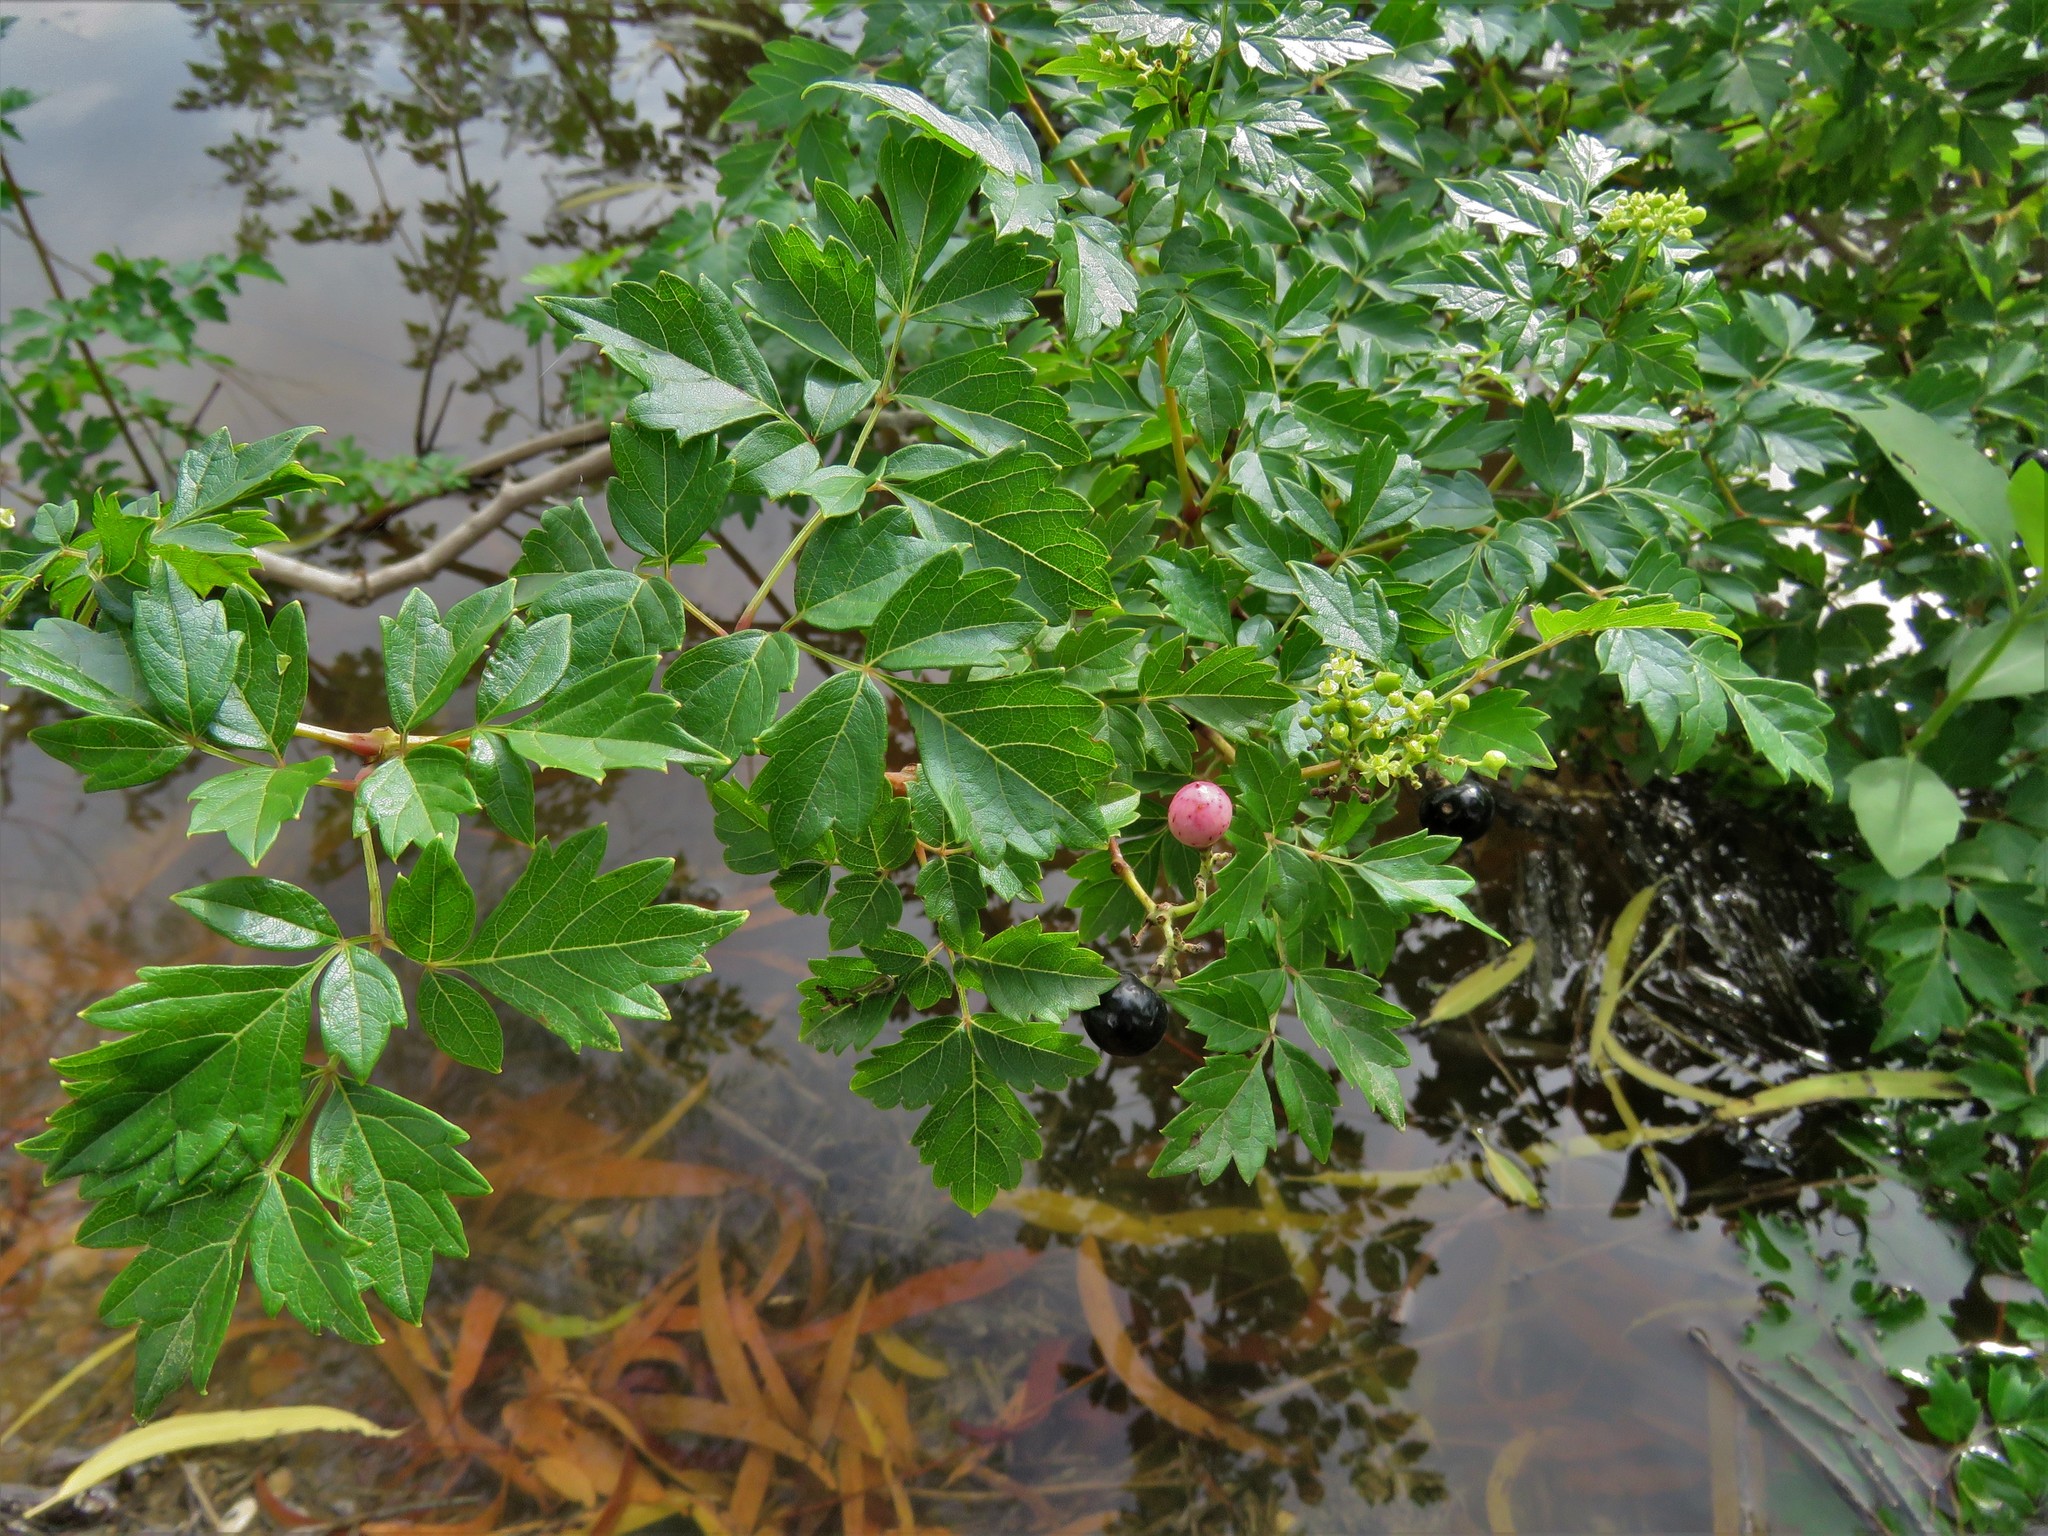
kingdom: Plantae
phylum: Tracheophyta
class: Magnoliopsida
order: Vitales
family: Vitaceae
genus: Nekemias
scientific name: Nekemias arborea
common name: Peppervine
